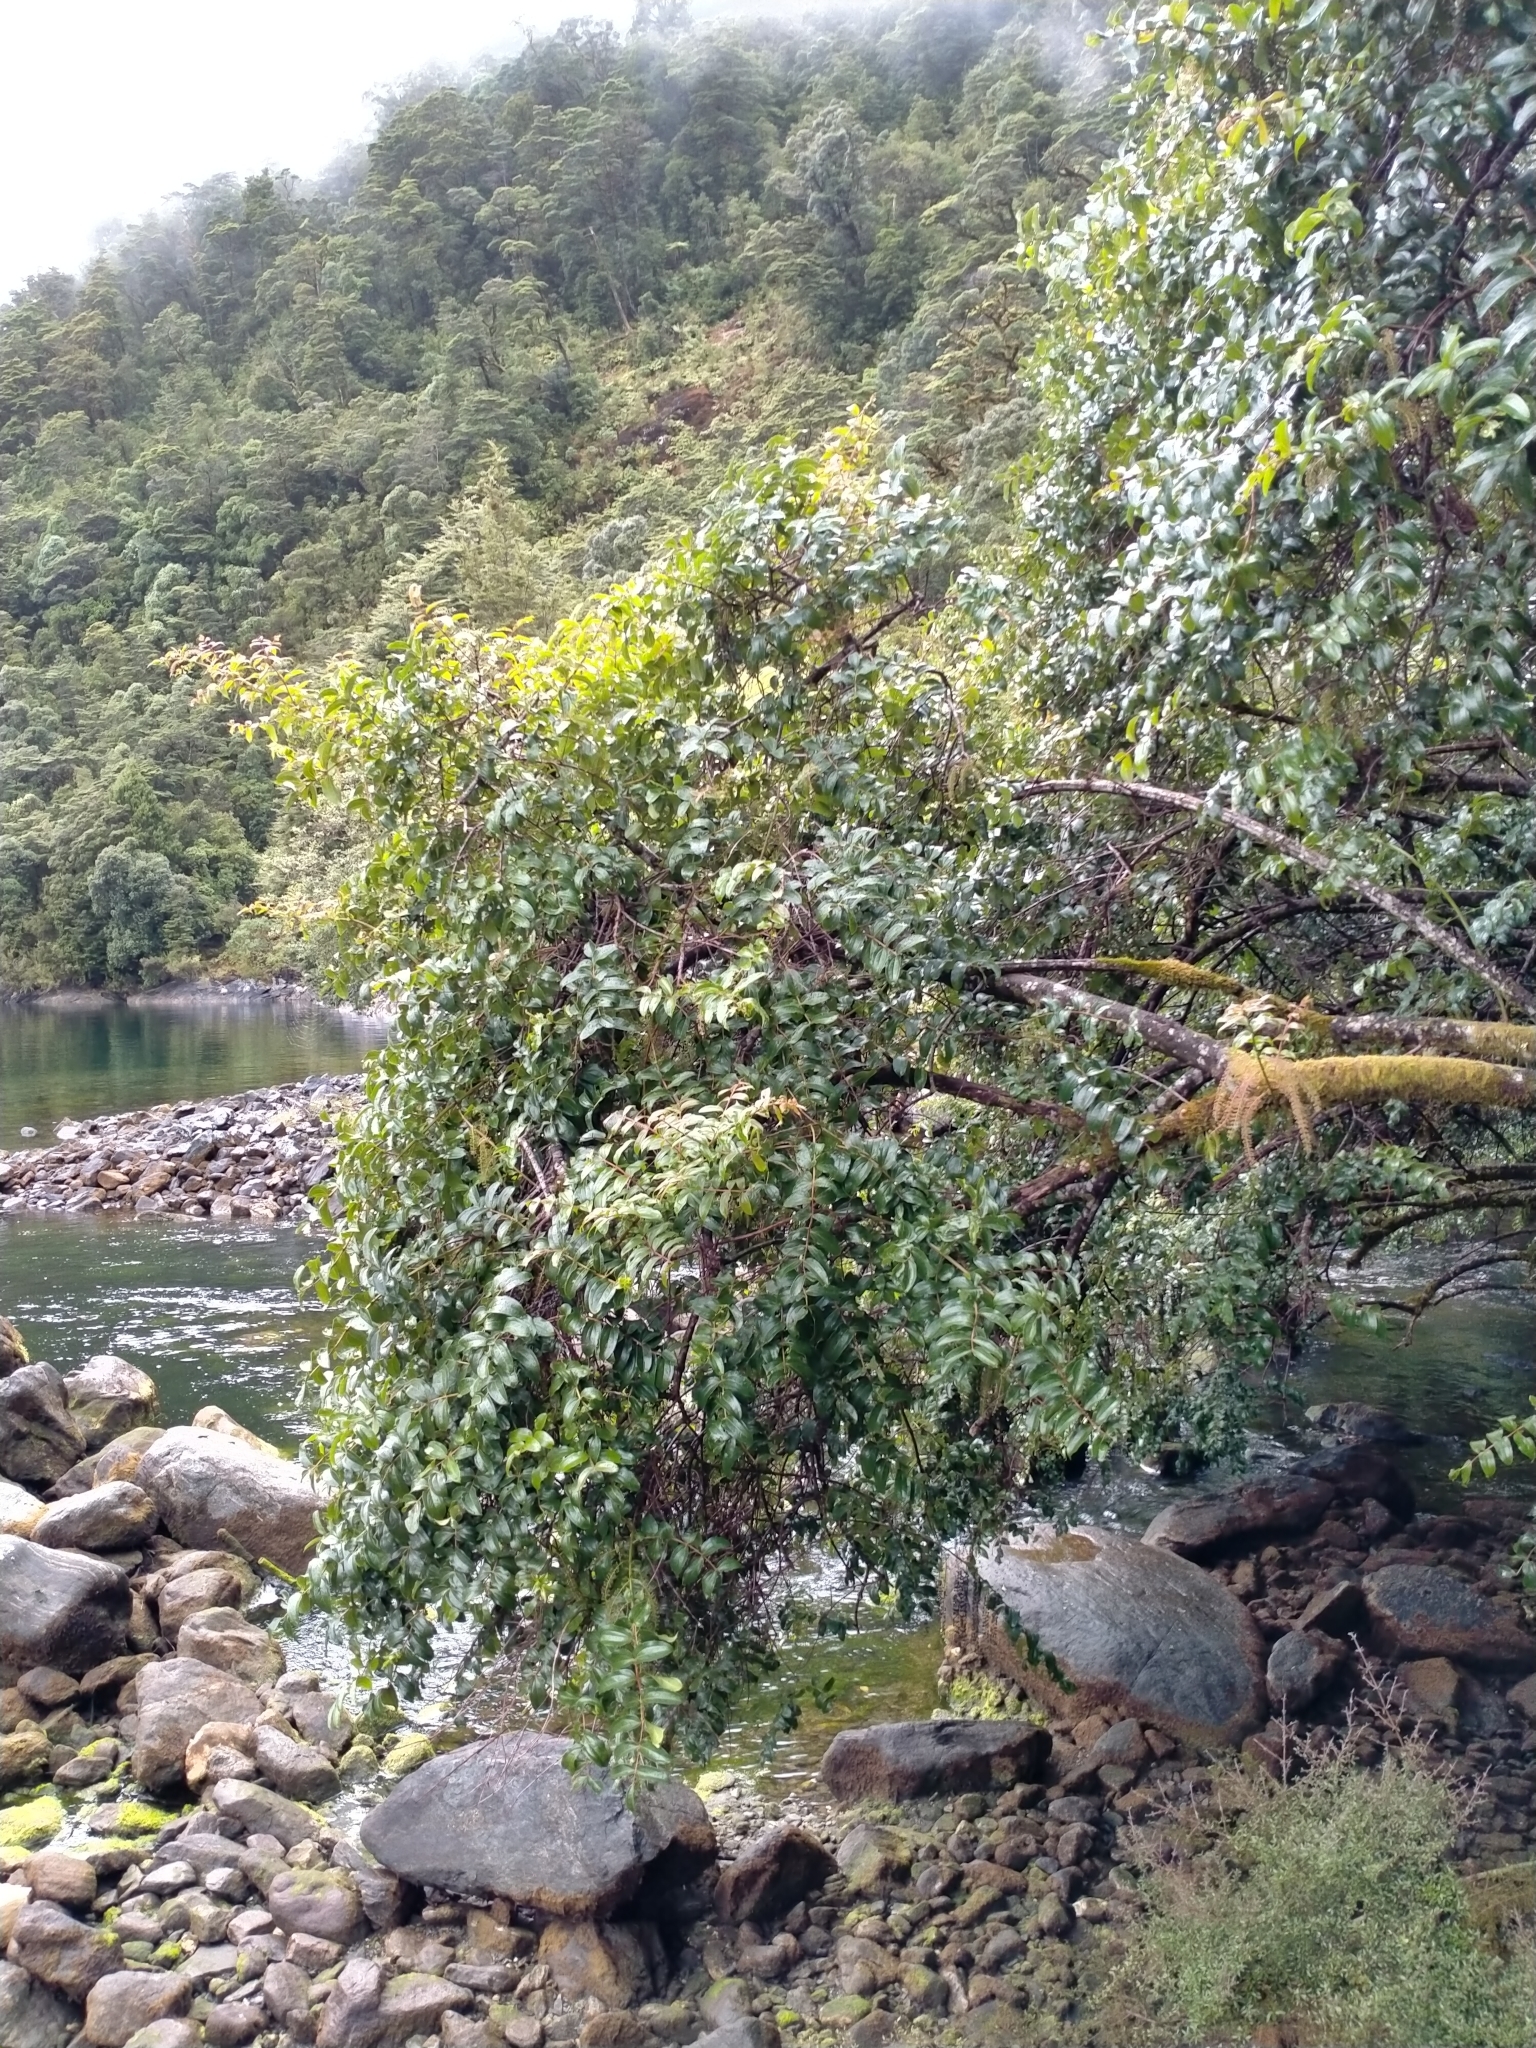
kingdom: Plantae
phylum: Tracheophyta
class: Magnoliopsida
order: Cucurbitales
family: Coriariaceae
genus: Coriaria
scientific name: Coriaria arborea
